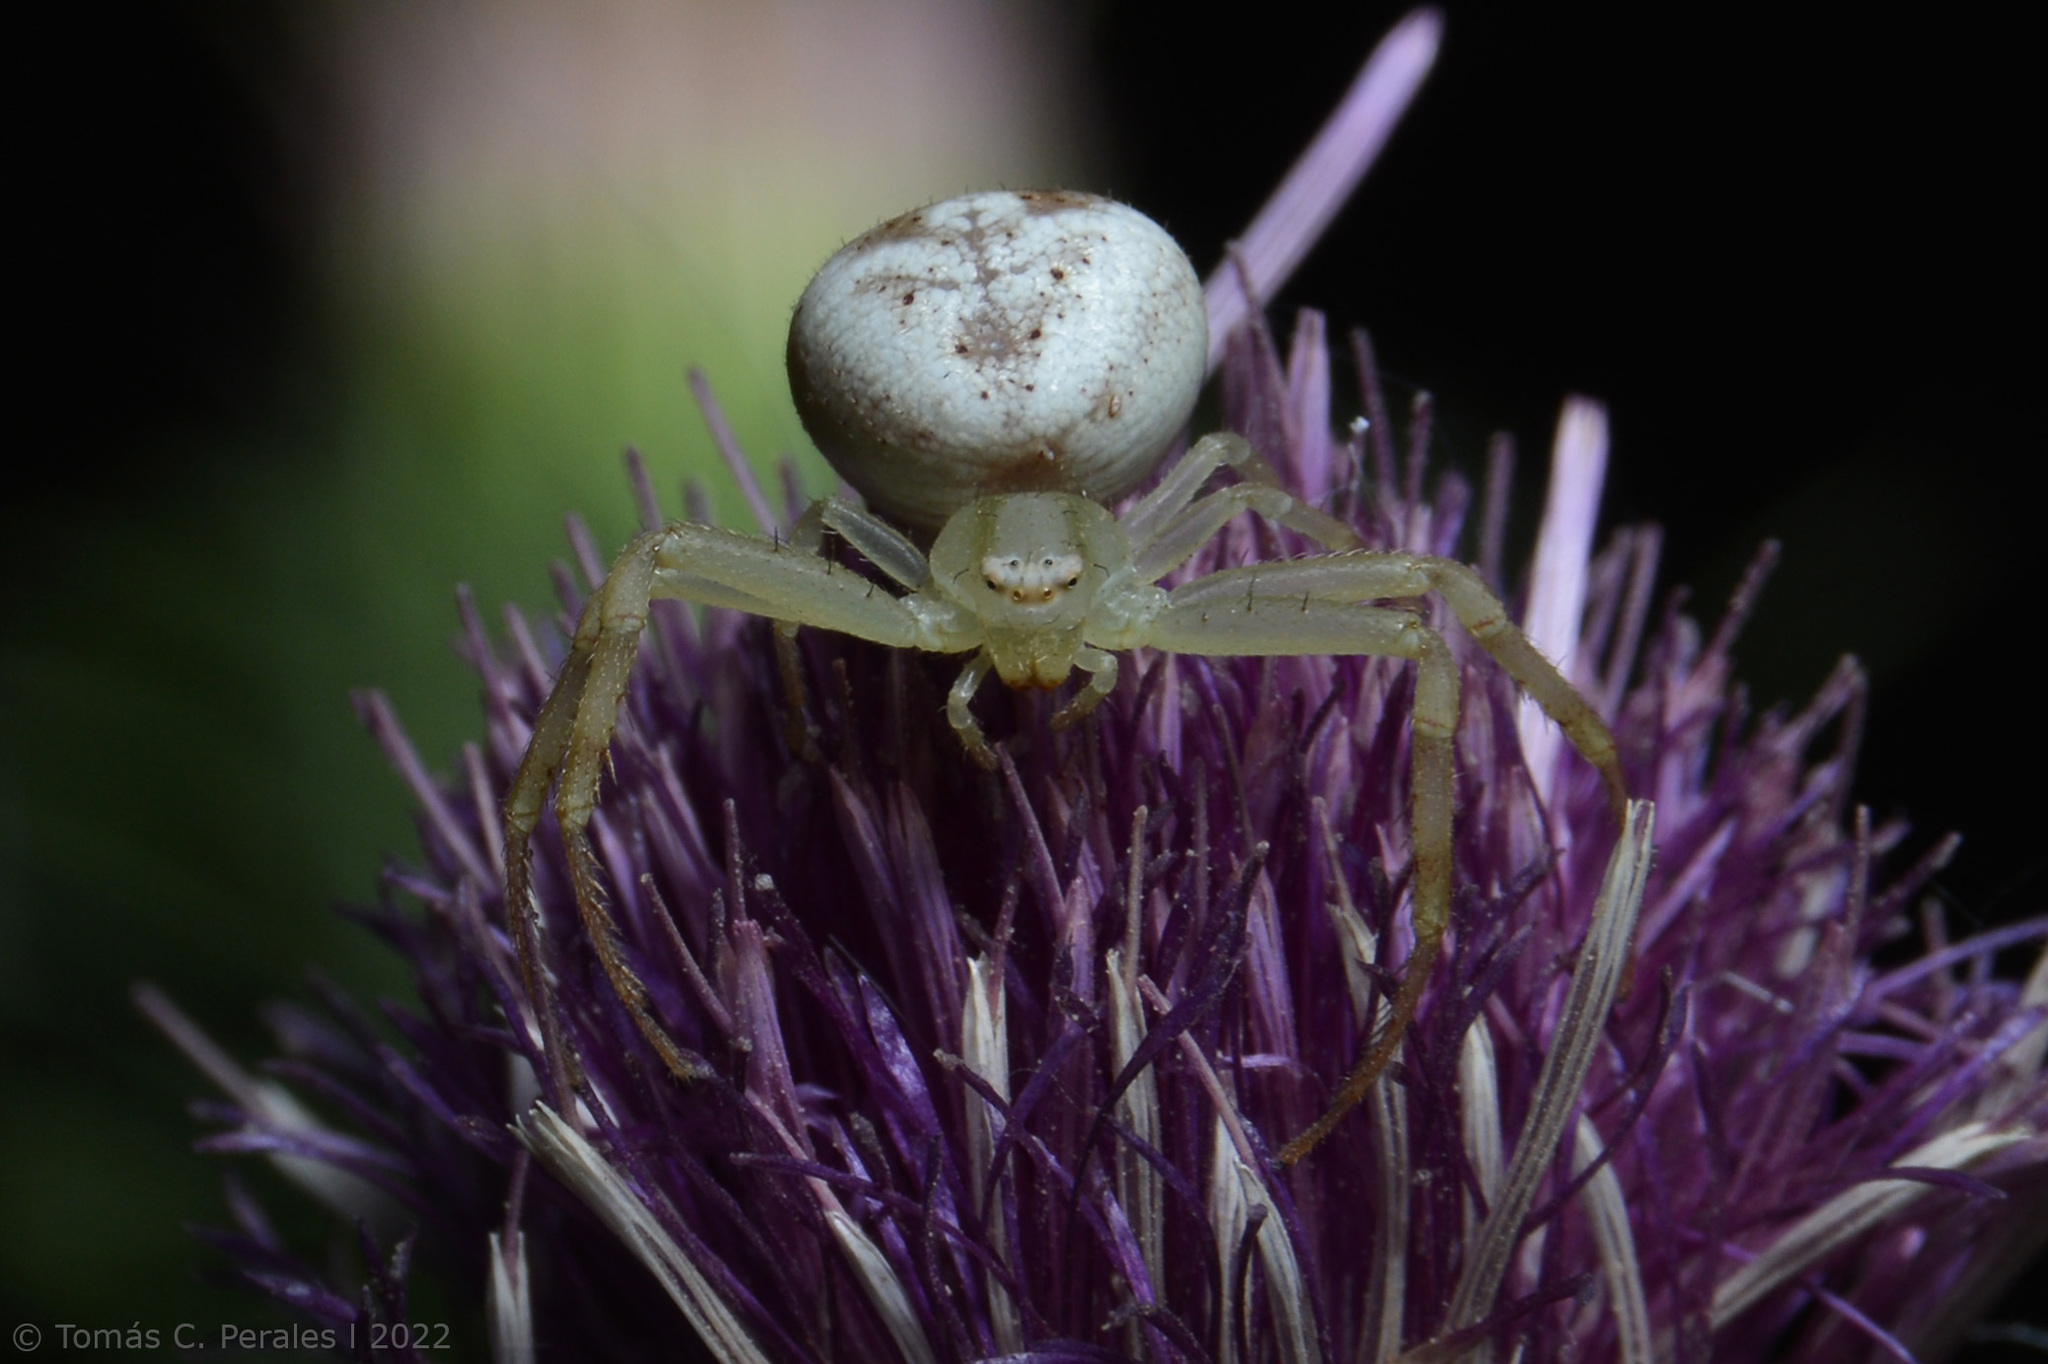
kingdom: Animalia
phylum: Arthropoda
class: Arachnida
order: Araneae
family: Thomisidae
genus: Misumenops
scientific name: Misumenops
